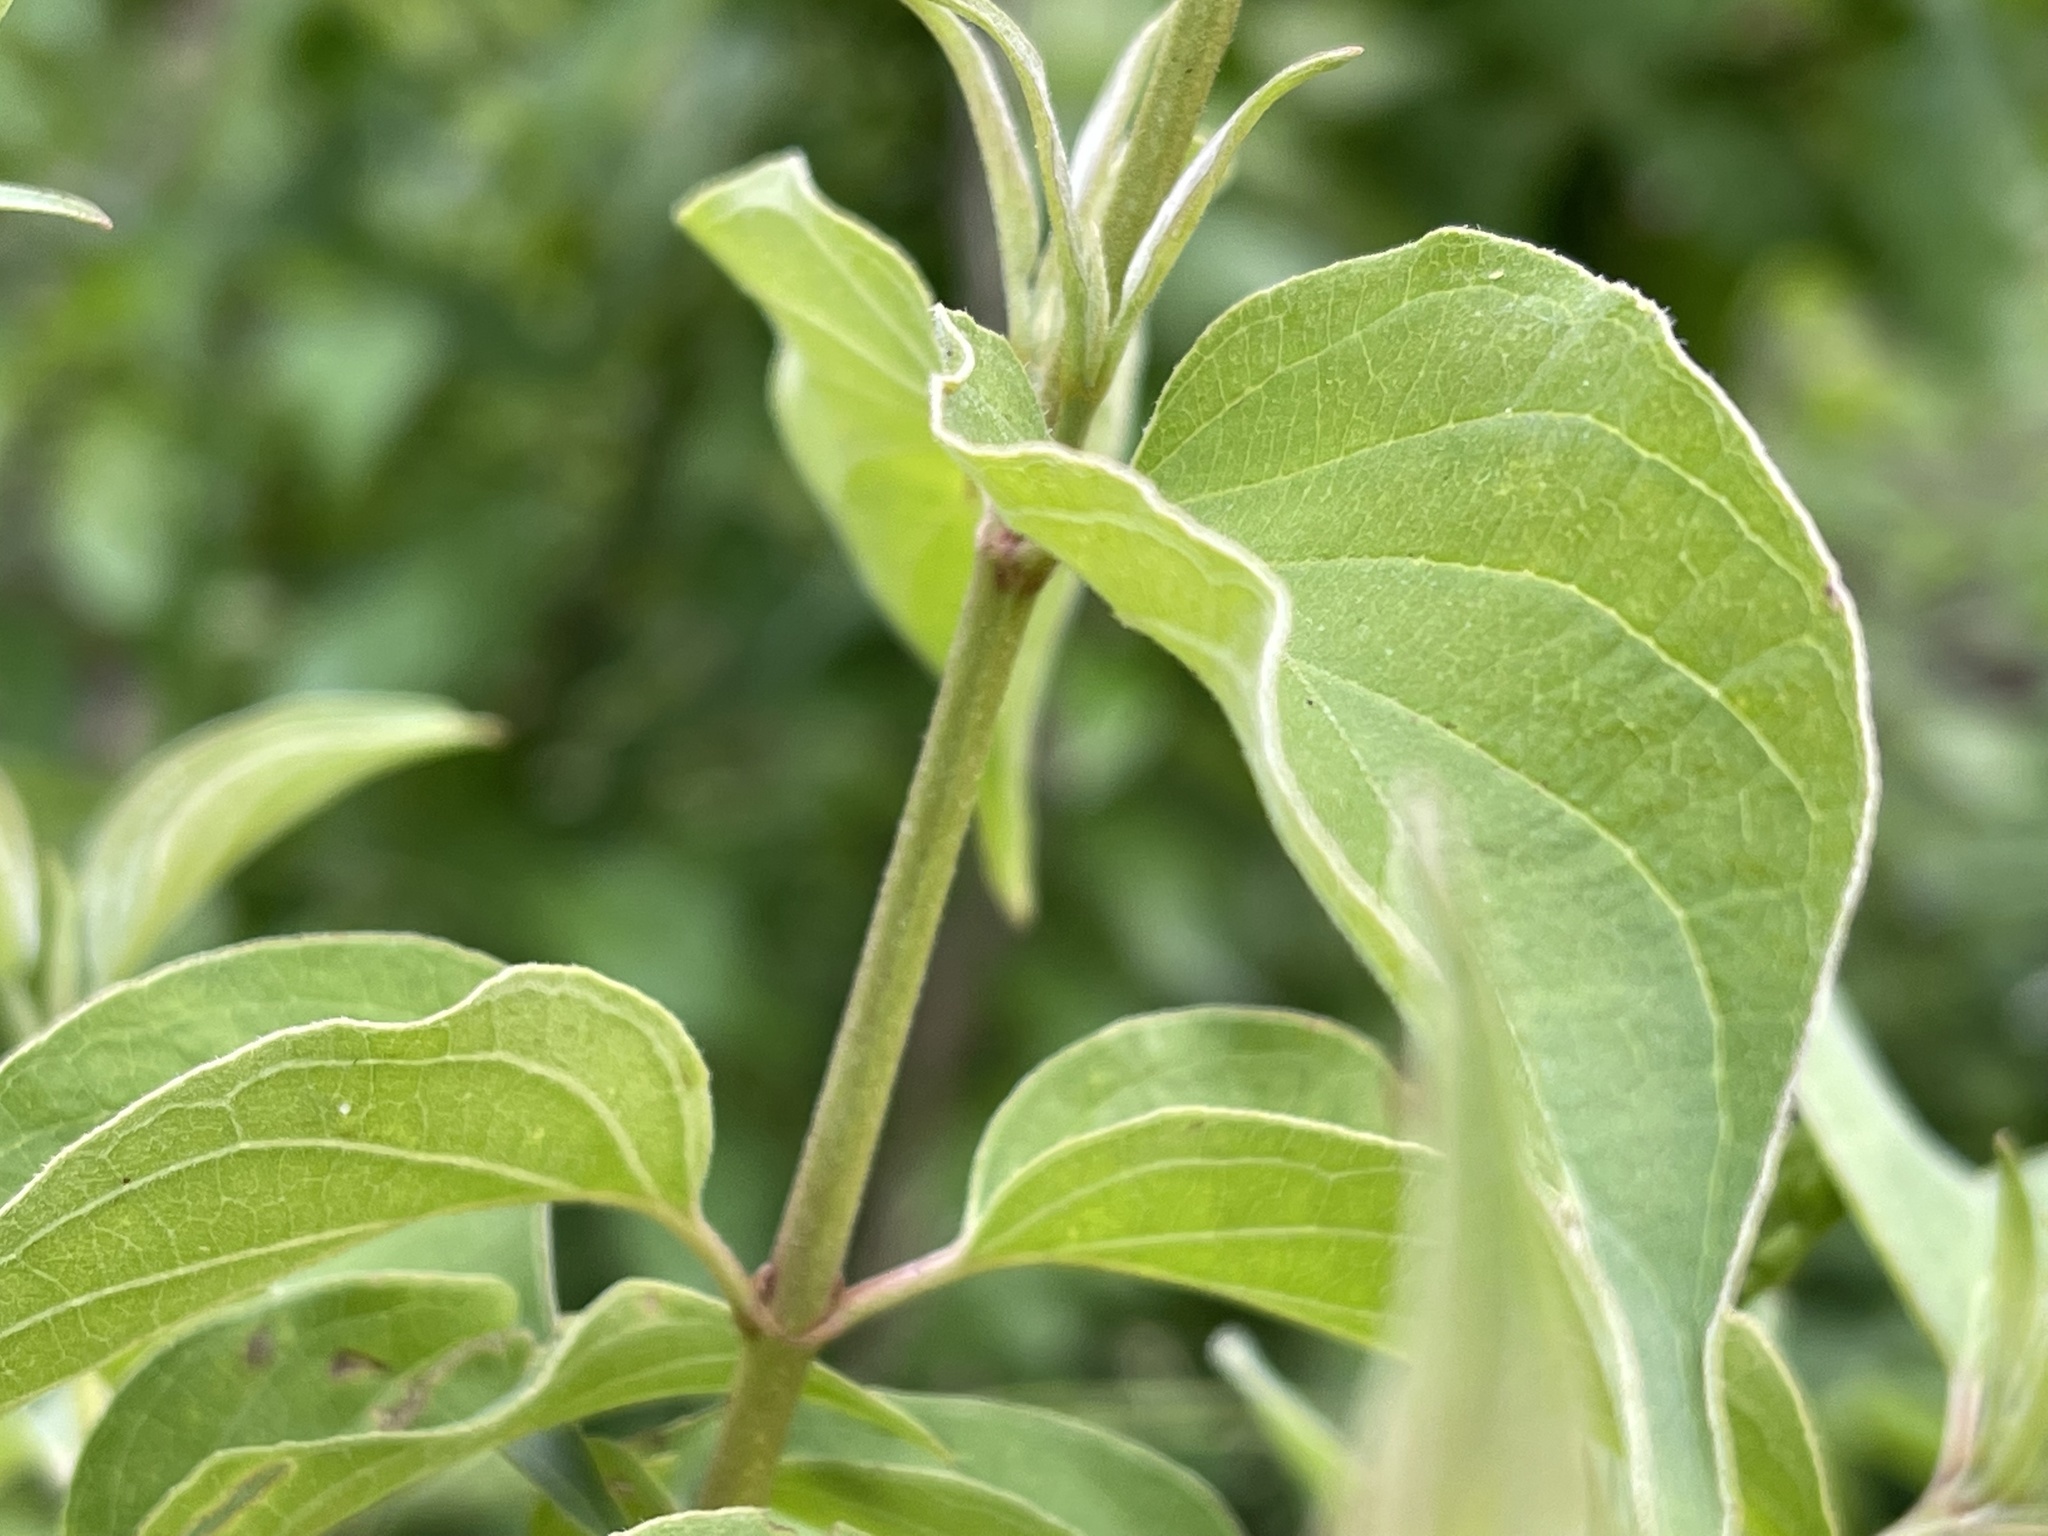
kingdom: Plantae
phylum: Tracheophyta
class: Magnoliopsida
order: Cornales
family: Cornaceae
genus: Cornus
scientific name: Cornus drummondii
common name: Rough-leaf dogwood
